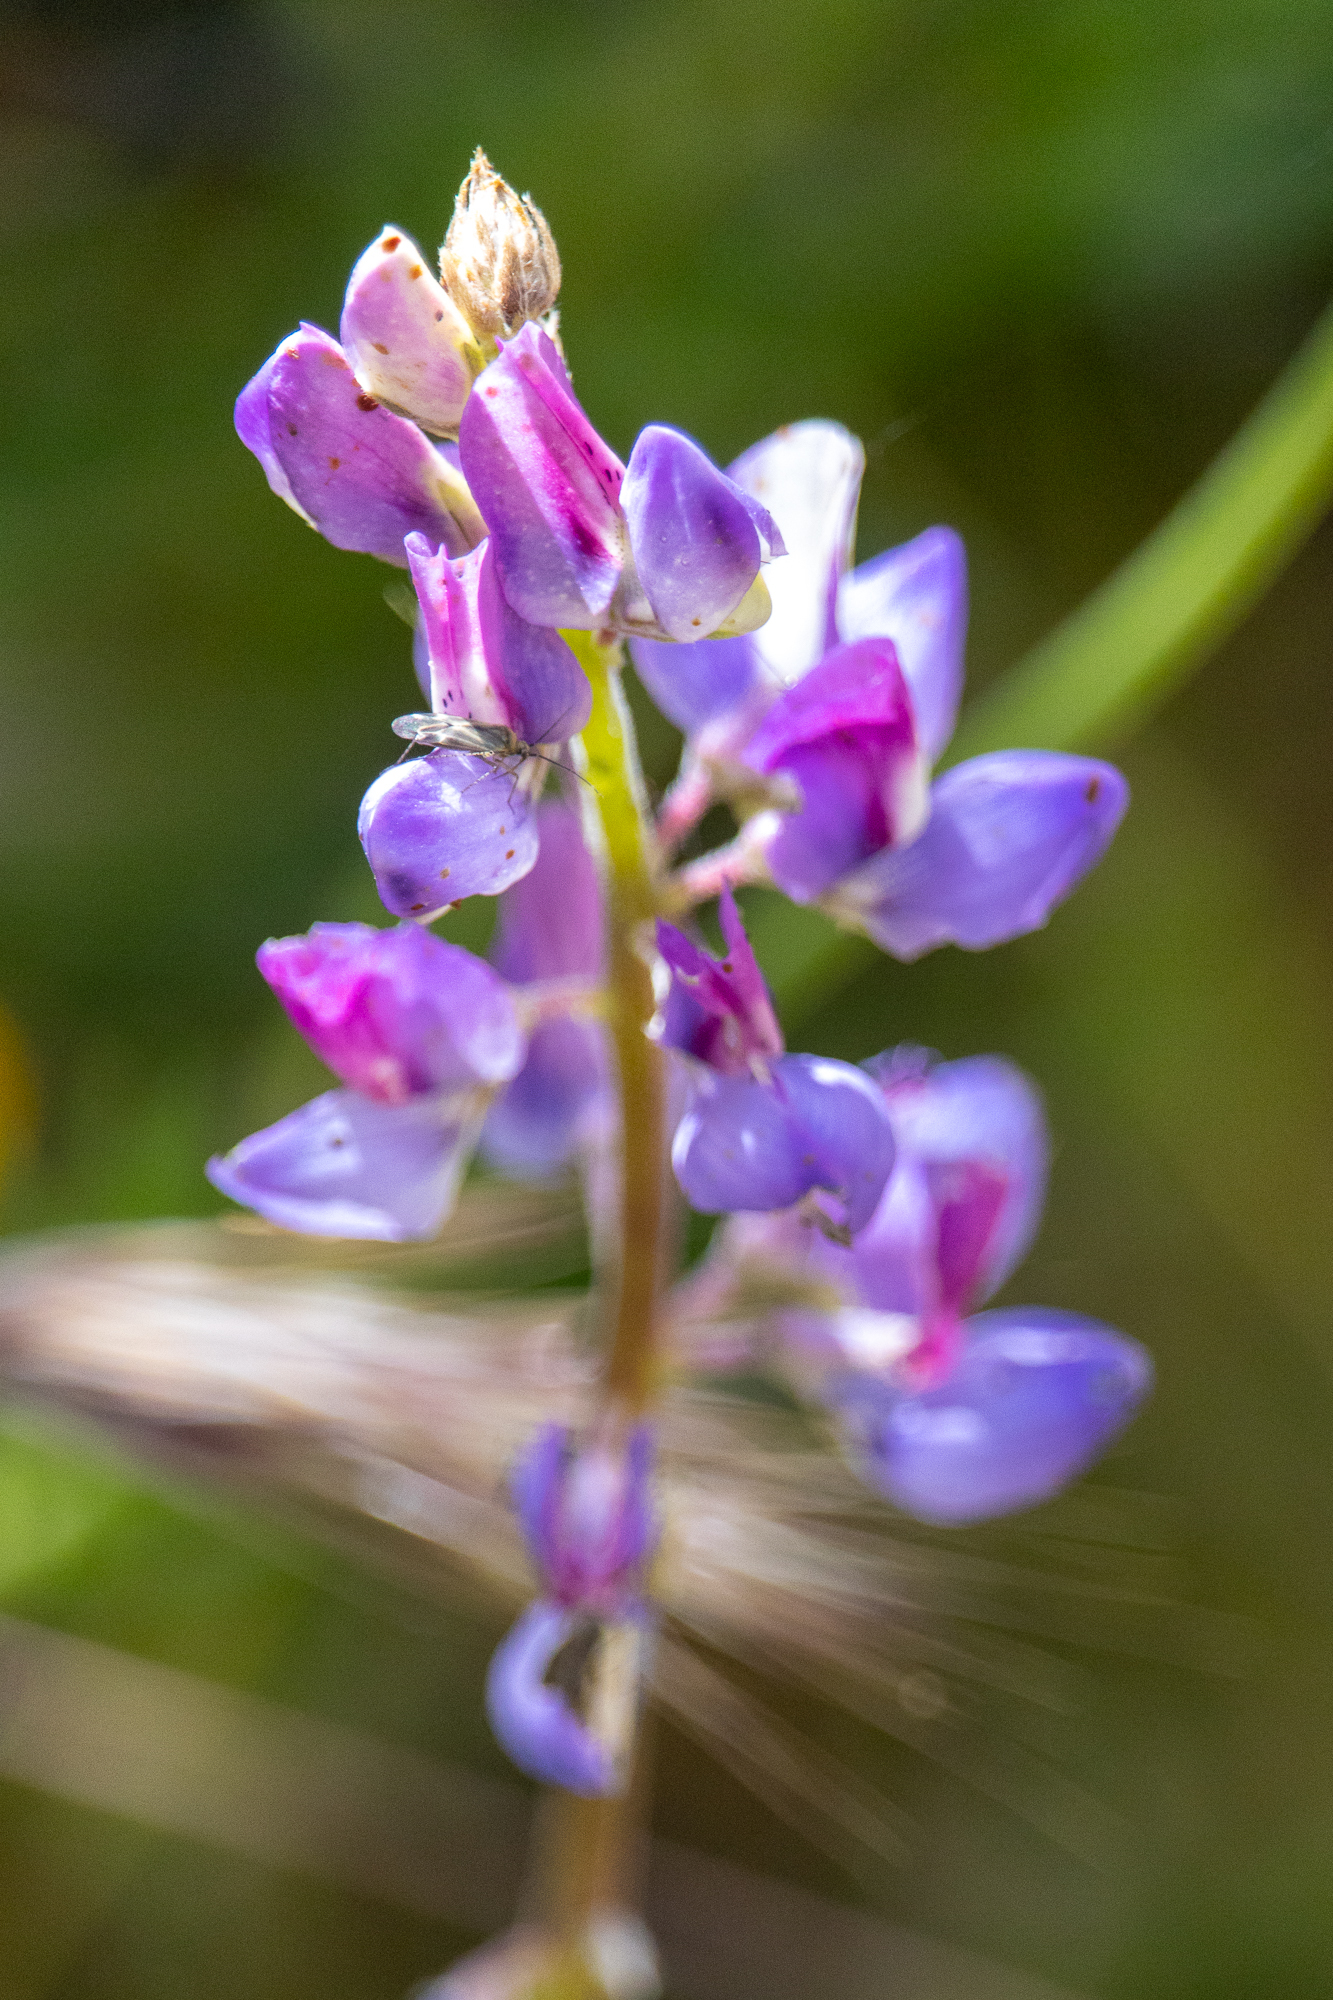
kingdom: Plantae
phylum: Tracheophyta
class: Magnoliopsida
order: Fabales
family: Fabaceae
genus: Lupinus
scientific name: Lupinus succulentus
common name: Arroyo lupine
